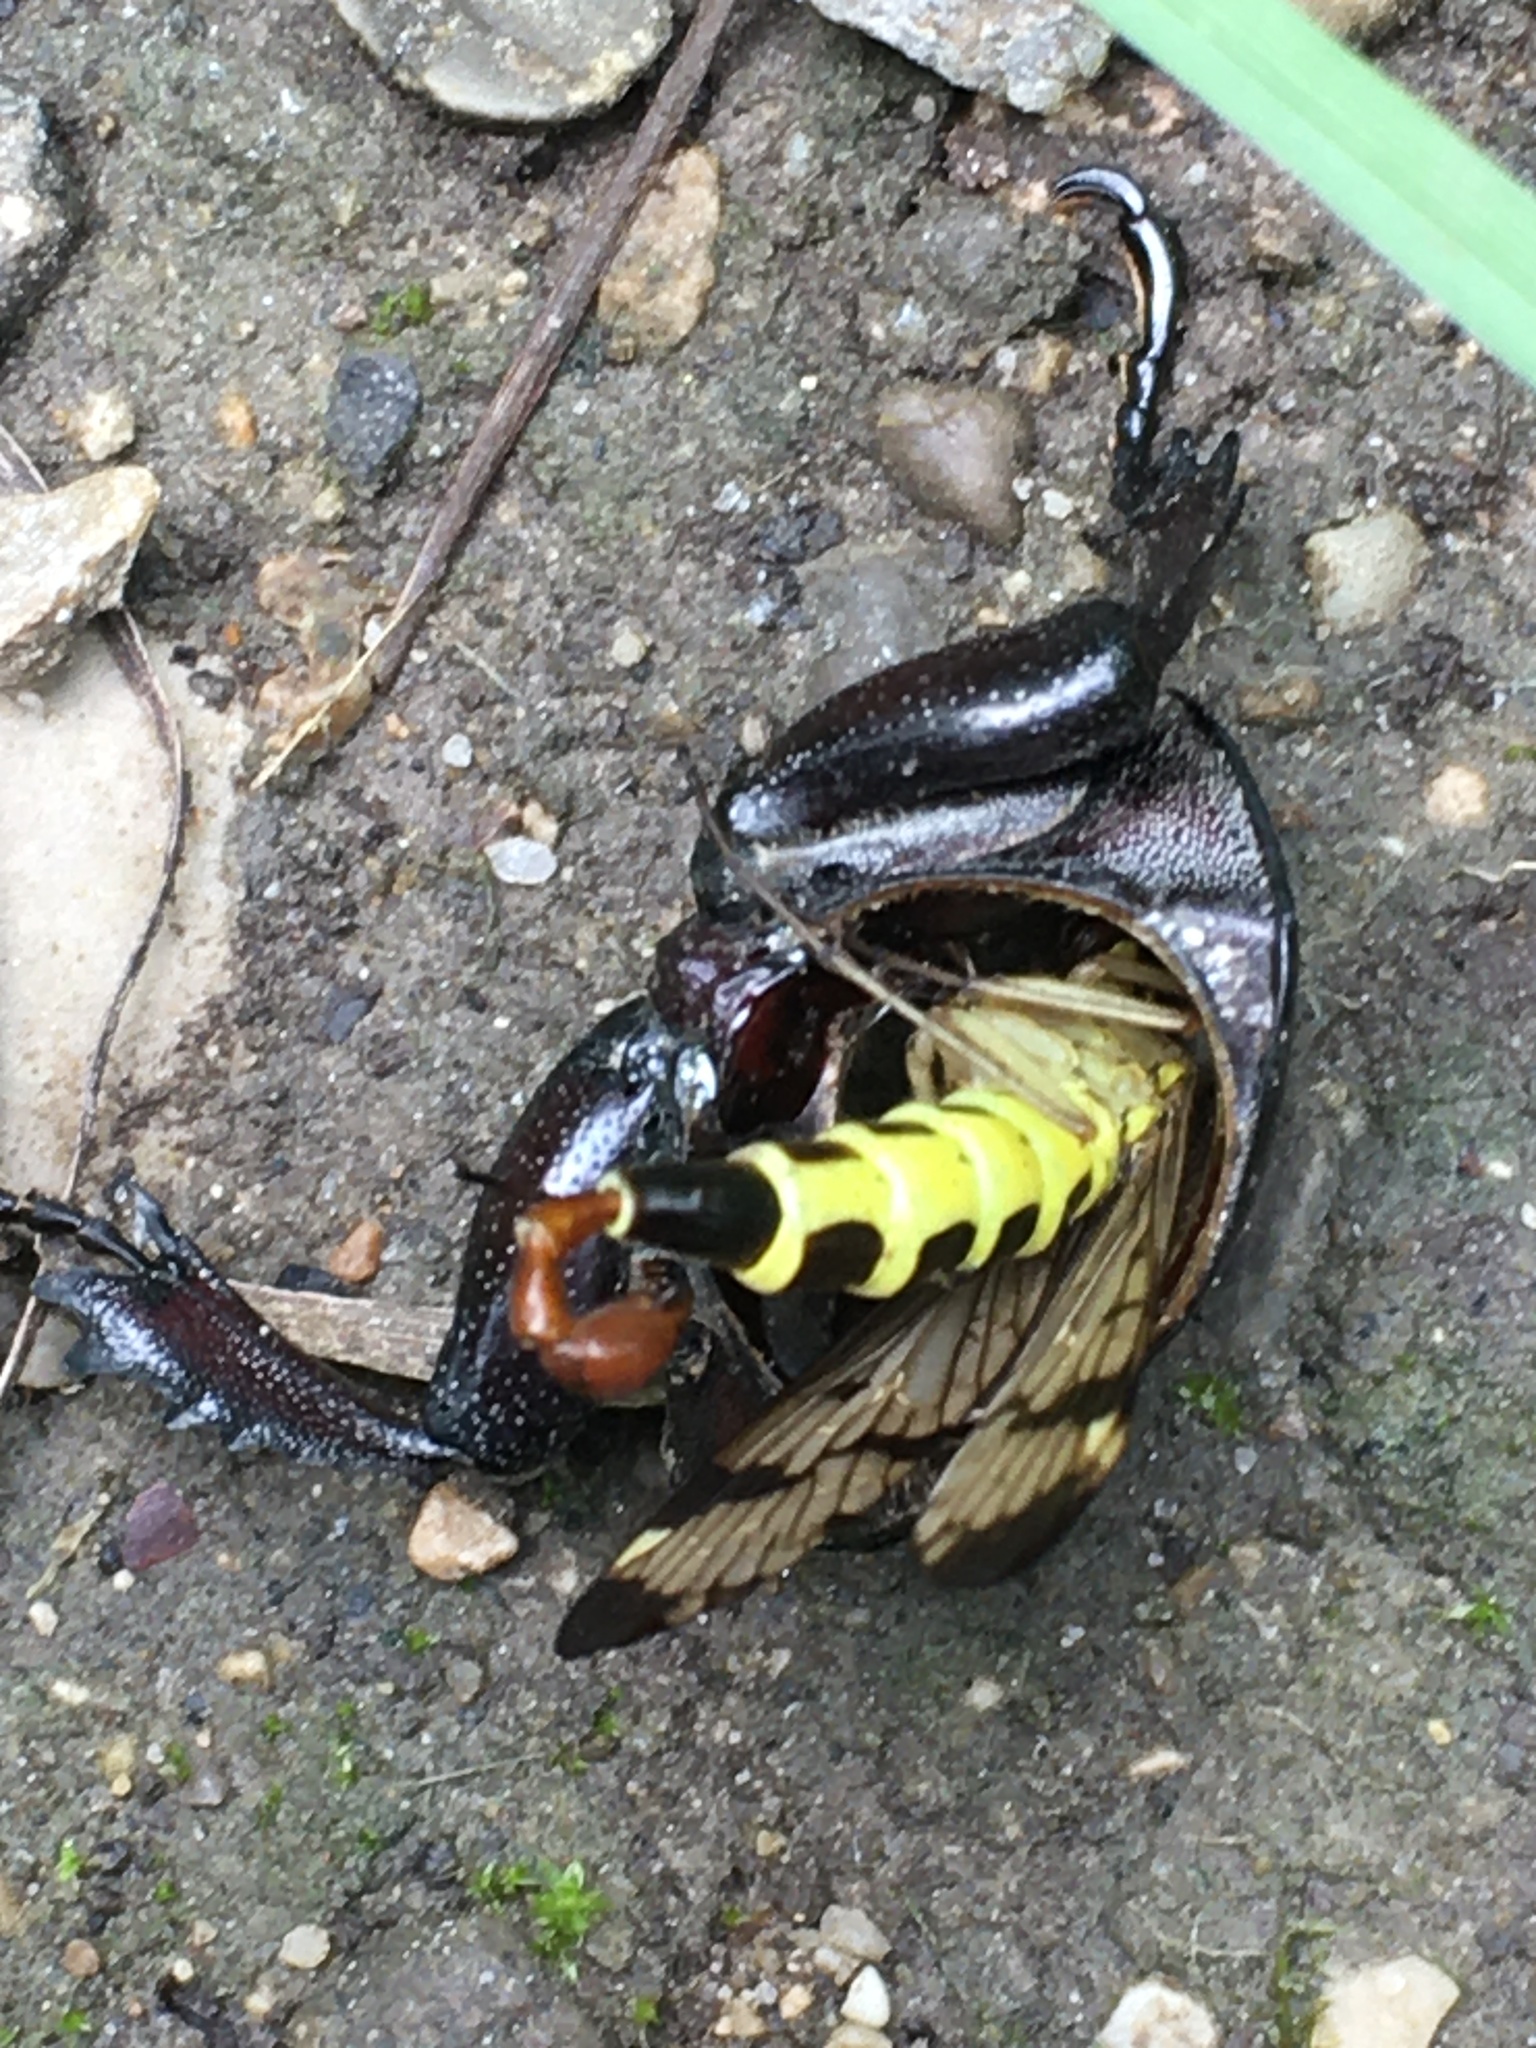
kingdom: Animalia
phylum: Arthropoda
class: Insecta
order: Coleoptera
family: Lucanidae
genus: Lucanus
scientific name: Lucanus cervus
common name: Stag beetle
